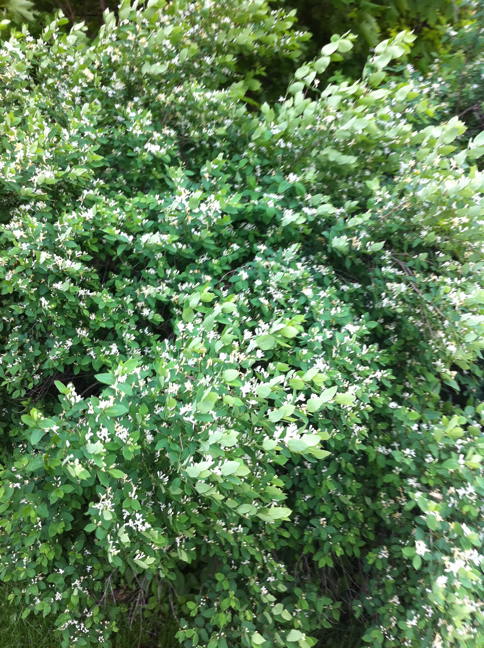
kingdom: Plantae
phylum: Tracheophyta
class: Magnoliopsida
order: Dipsacales
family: Caprifoliaceae
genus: Lonicera
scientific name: Lonicera morrowii
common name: Morrow's honeysuckle
